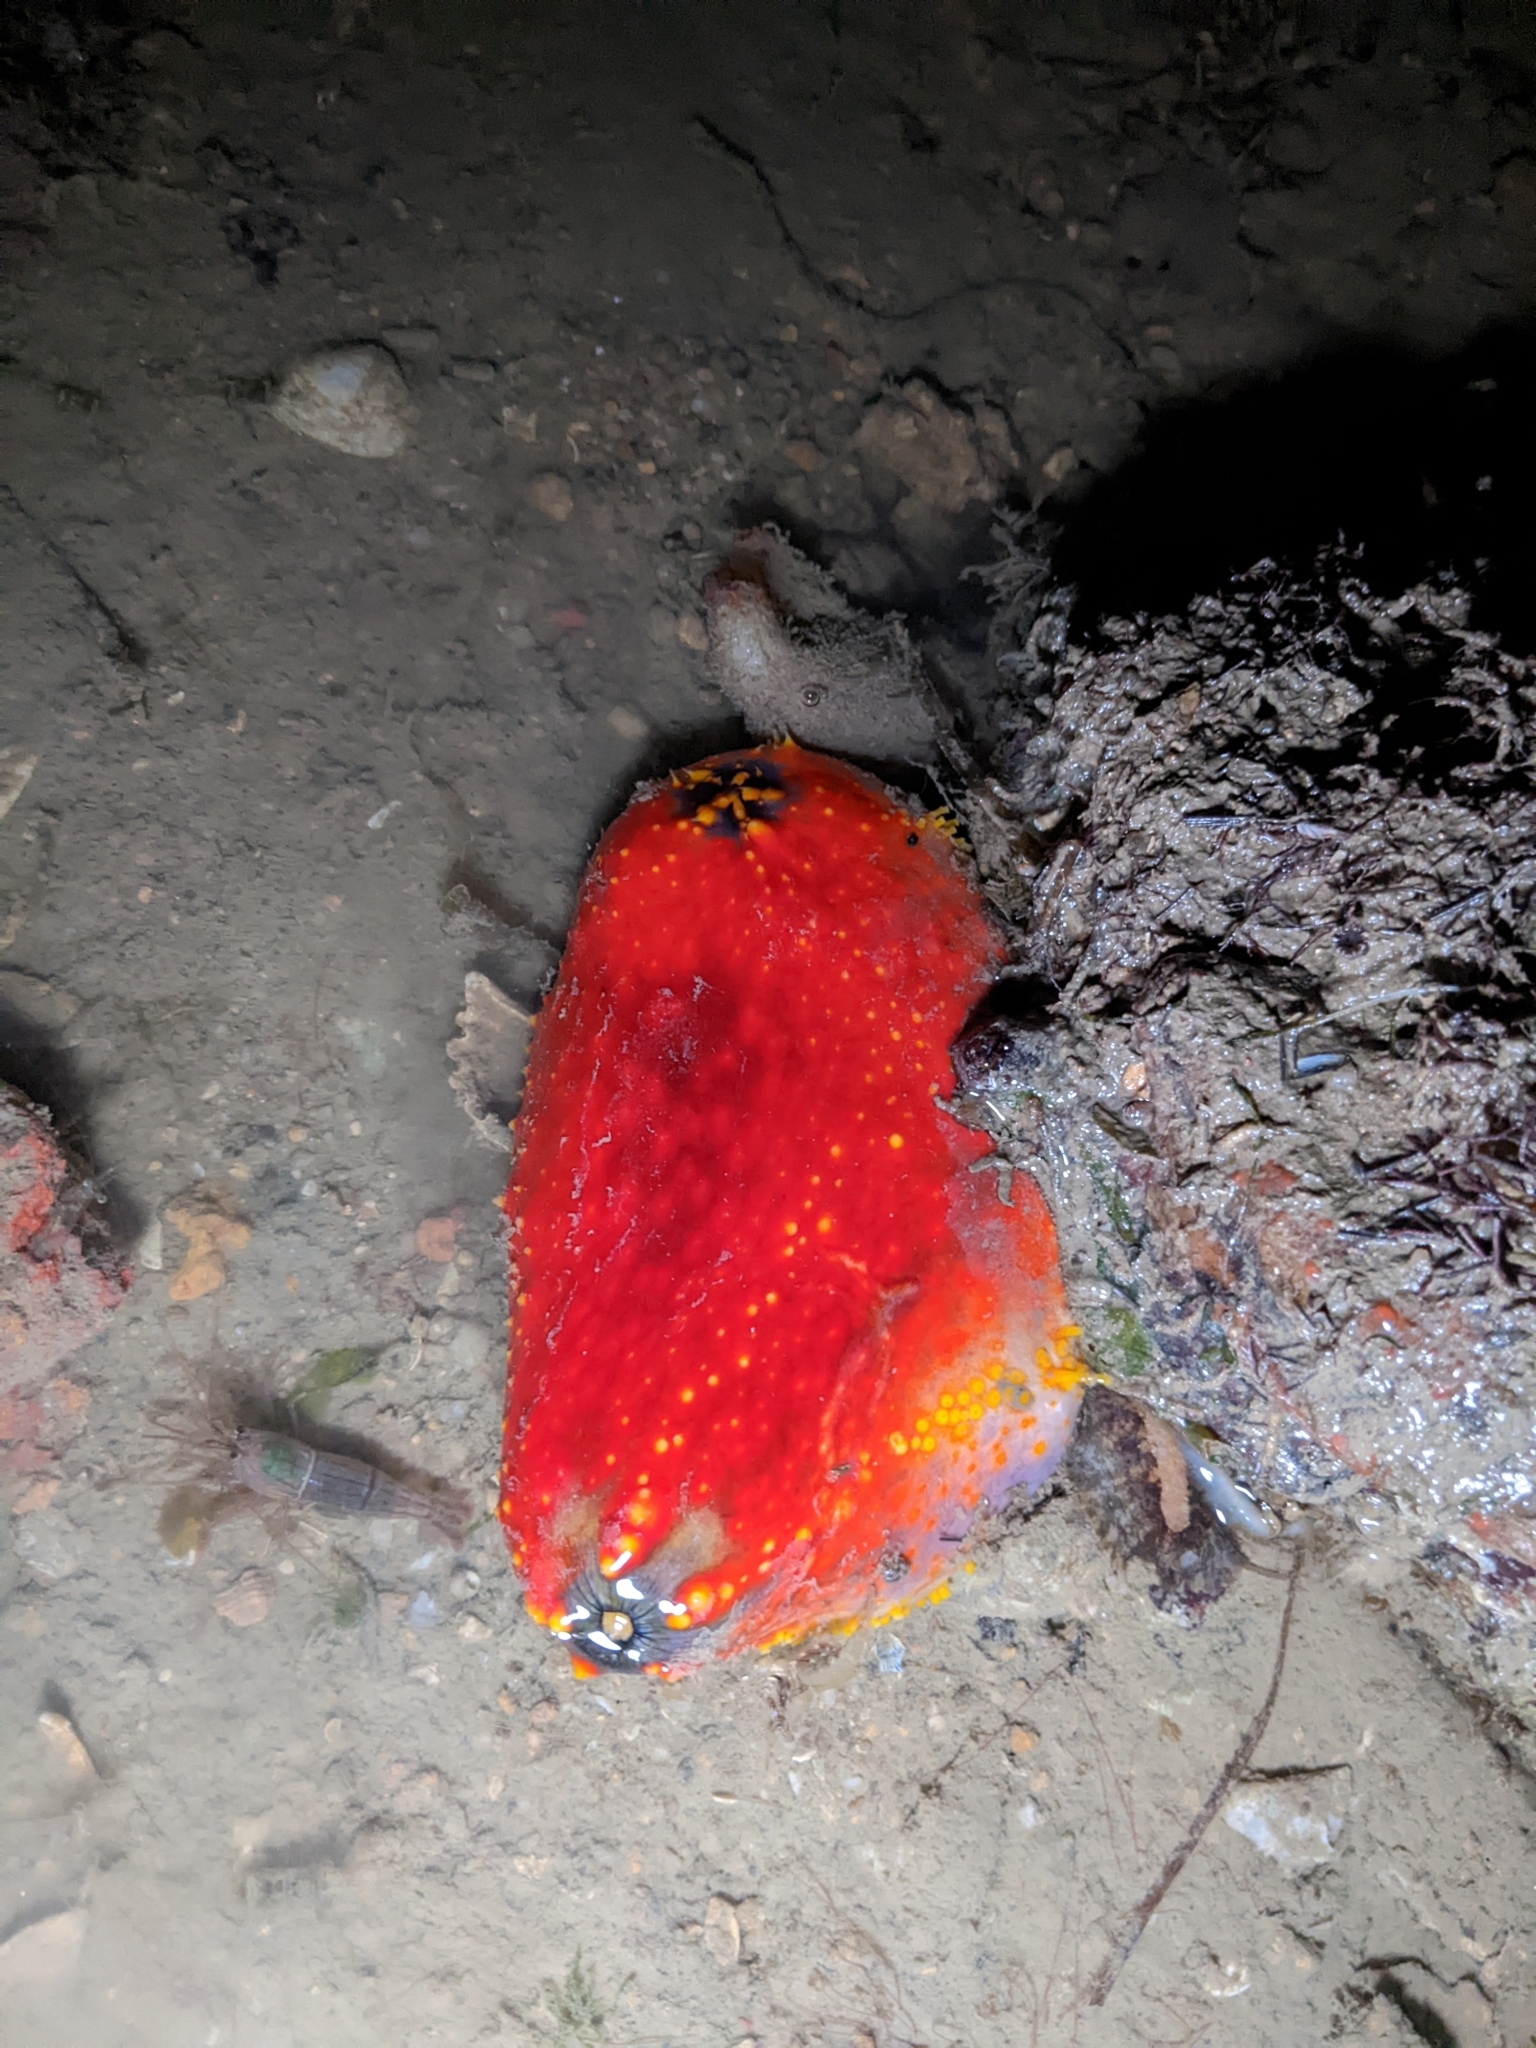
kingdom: Animalia
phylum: Echinodermata
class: Holothuroidea
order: Dendrochirotida
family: Cucumariidae
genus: Pseudocolochirus
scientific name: Pseudocolochirus violaceus
